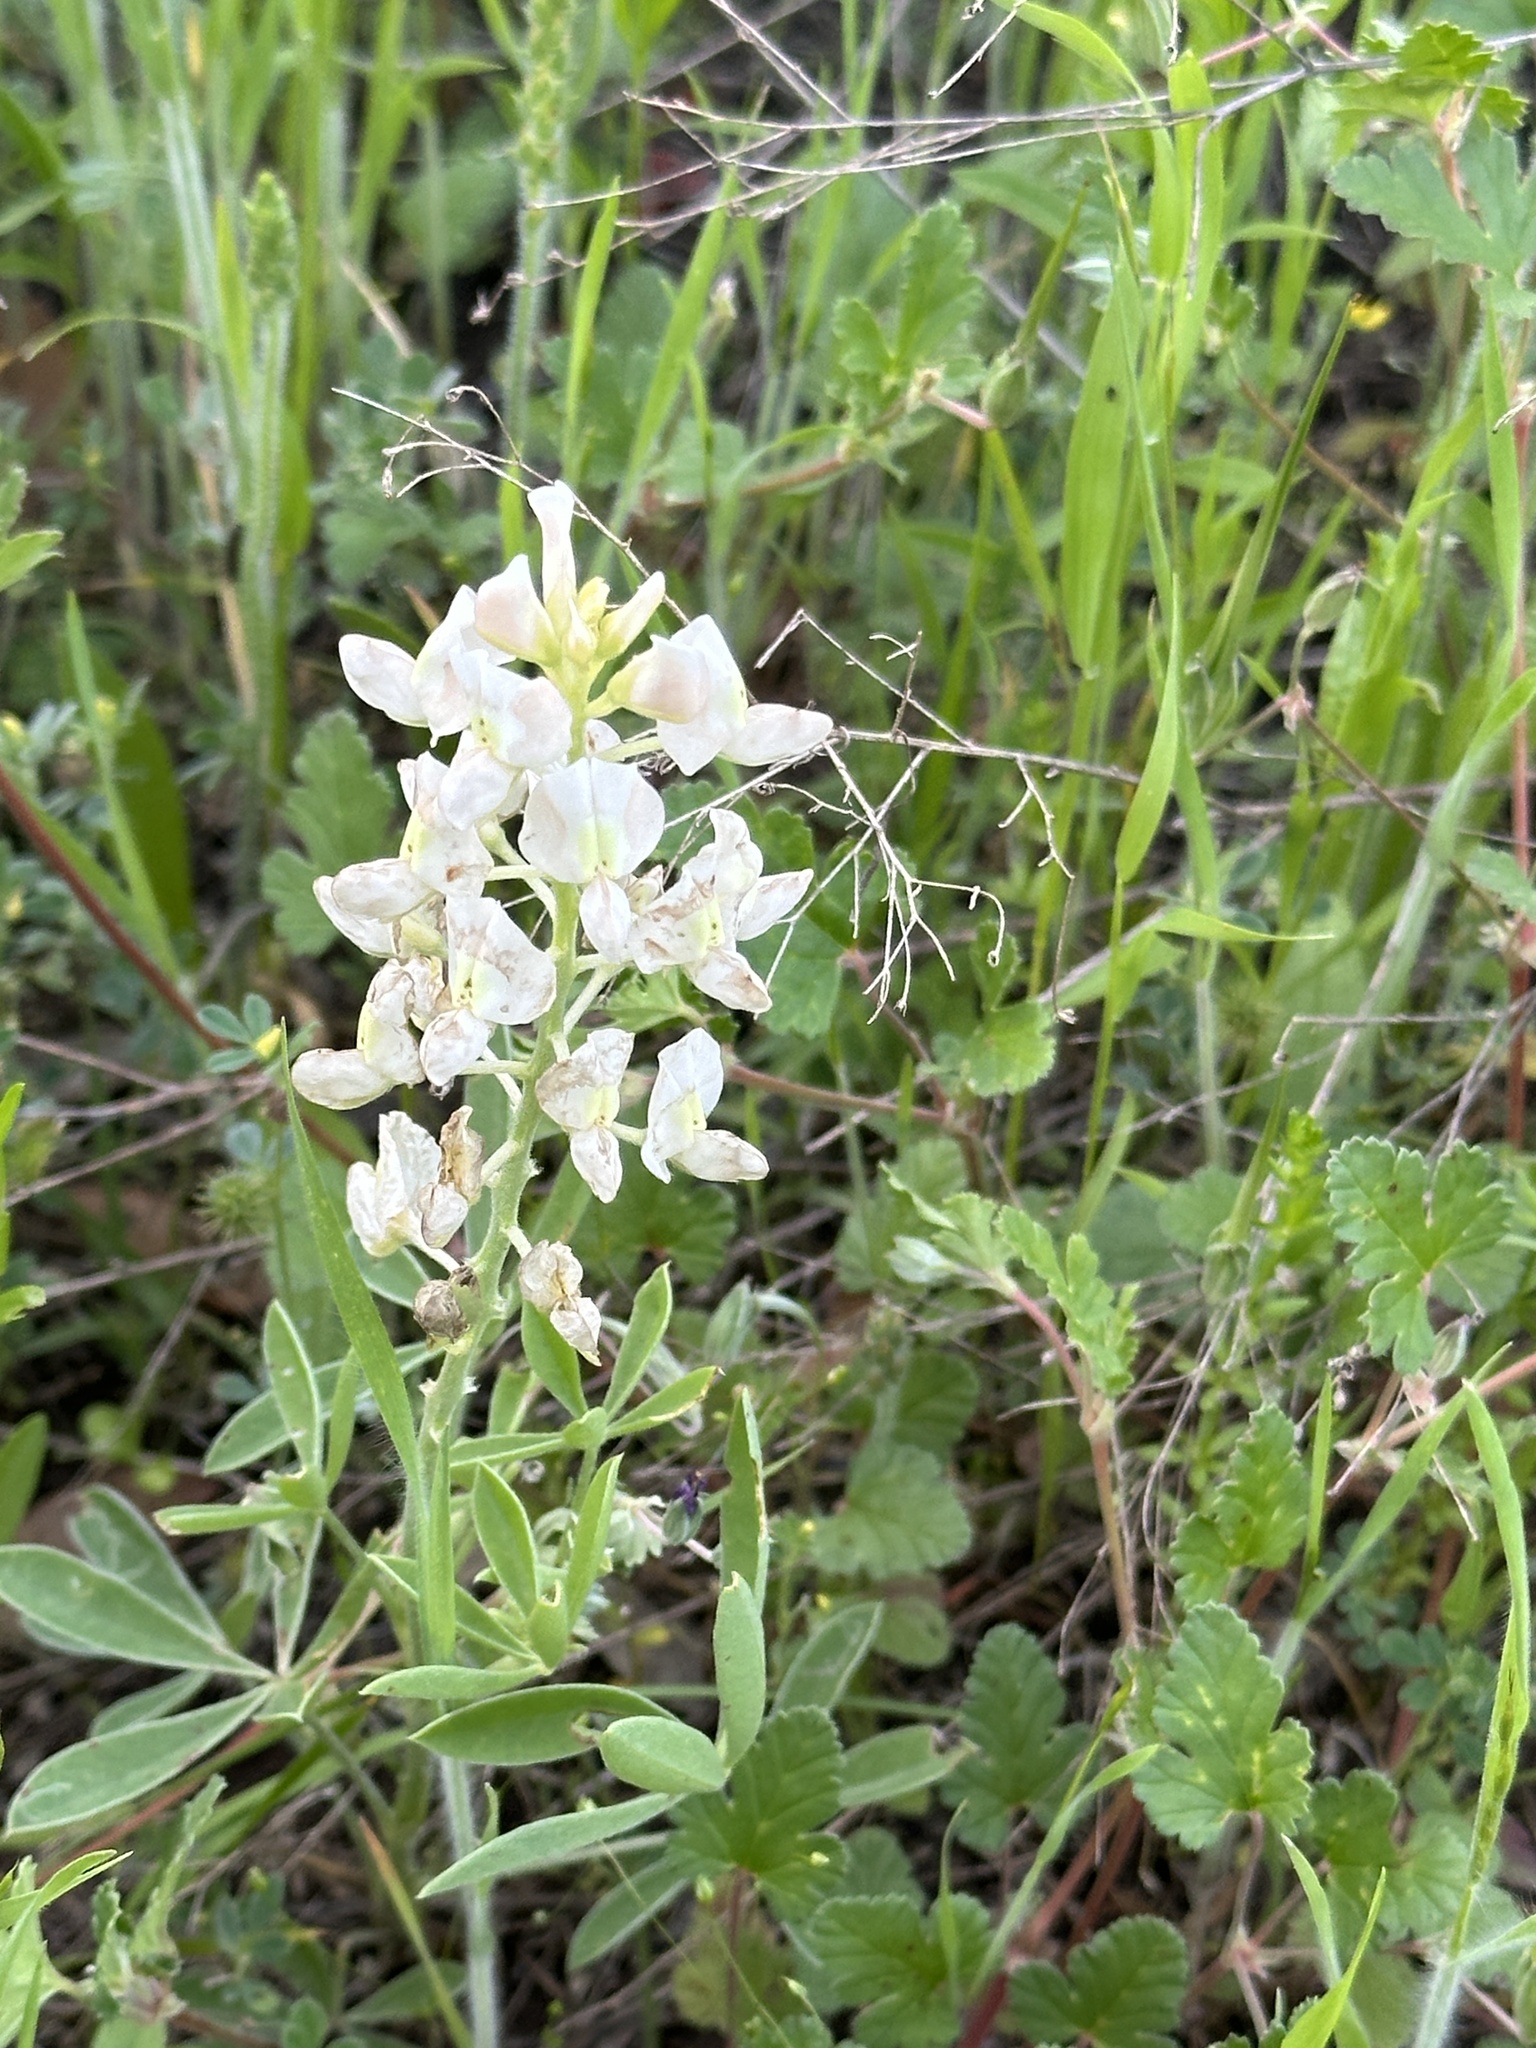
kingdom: Plantae
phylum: Tracheophyta
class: Magnoliopsida
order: Fabales
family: Fabaceae
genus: Lupinus
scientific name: Lupinus texensis
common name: Texas bluebonnet
